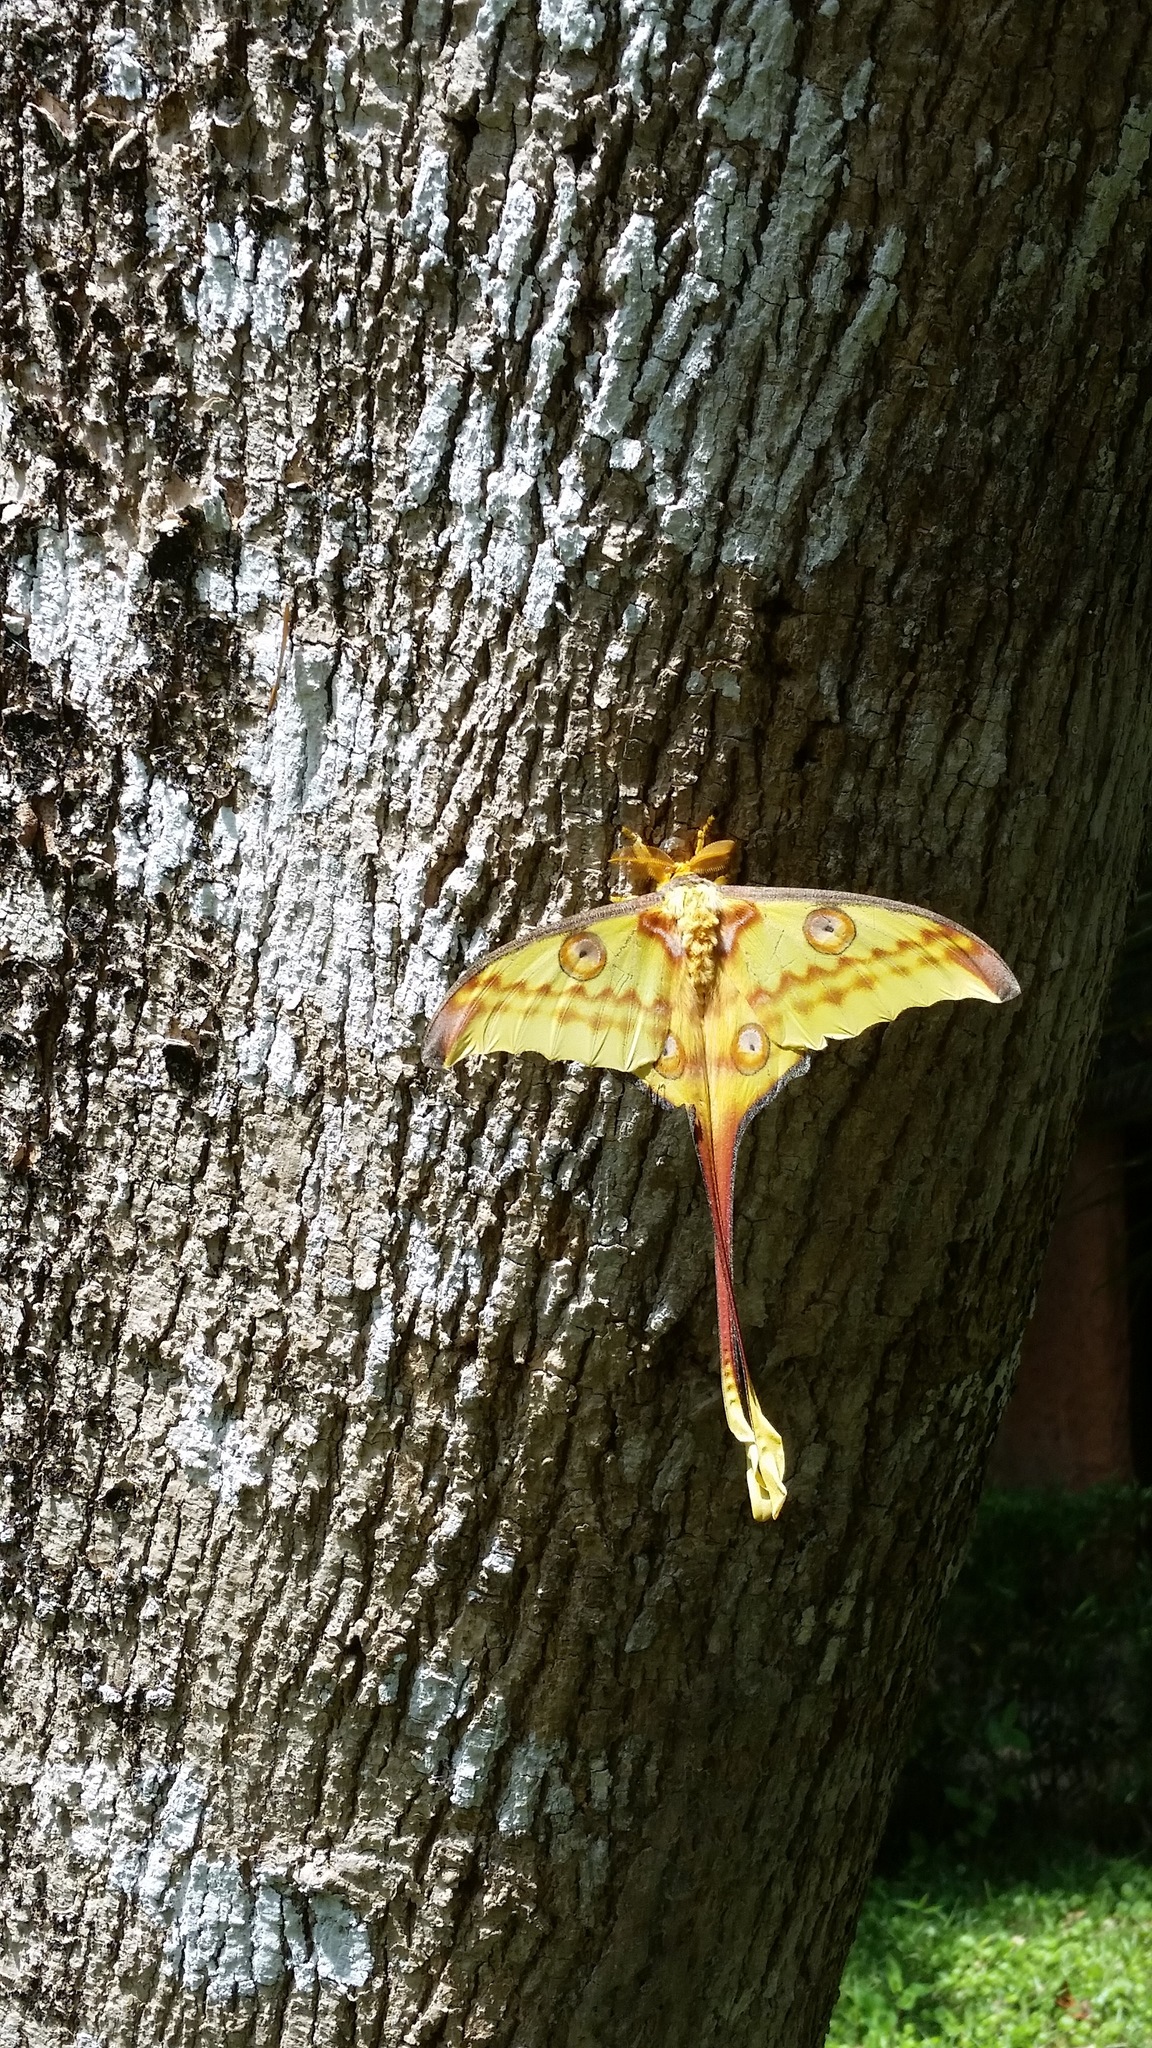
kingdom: Animalia
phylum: Arthropoda
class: Insecta
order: Lepidoptera
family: Saturniidae
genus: Argema
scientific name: Argema mittrei
